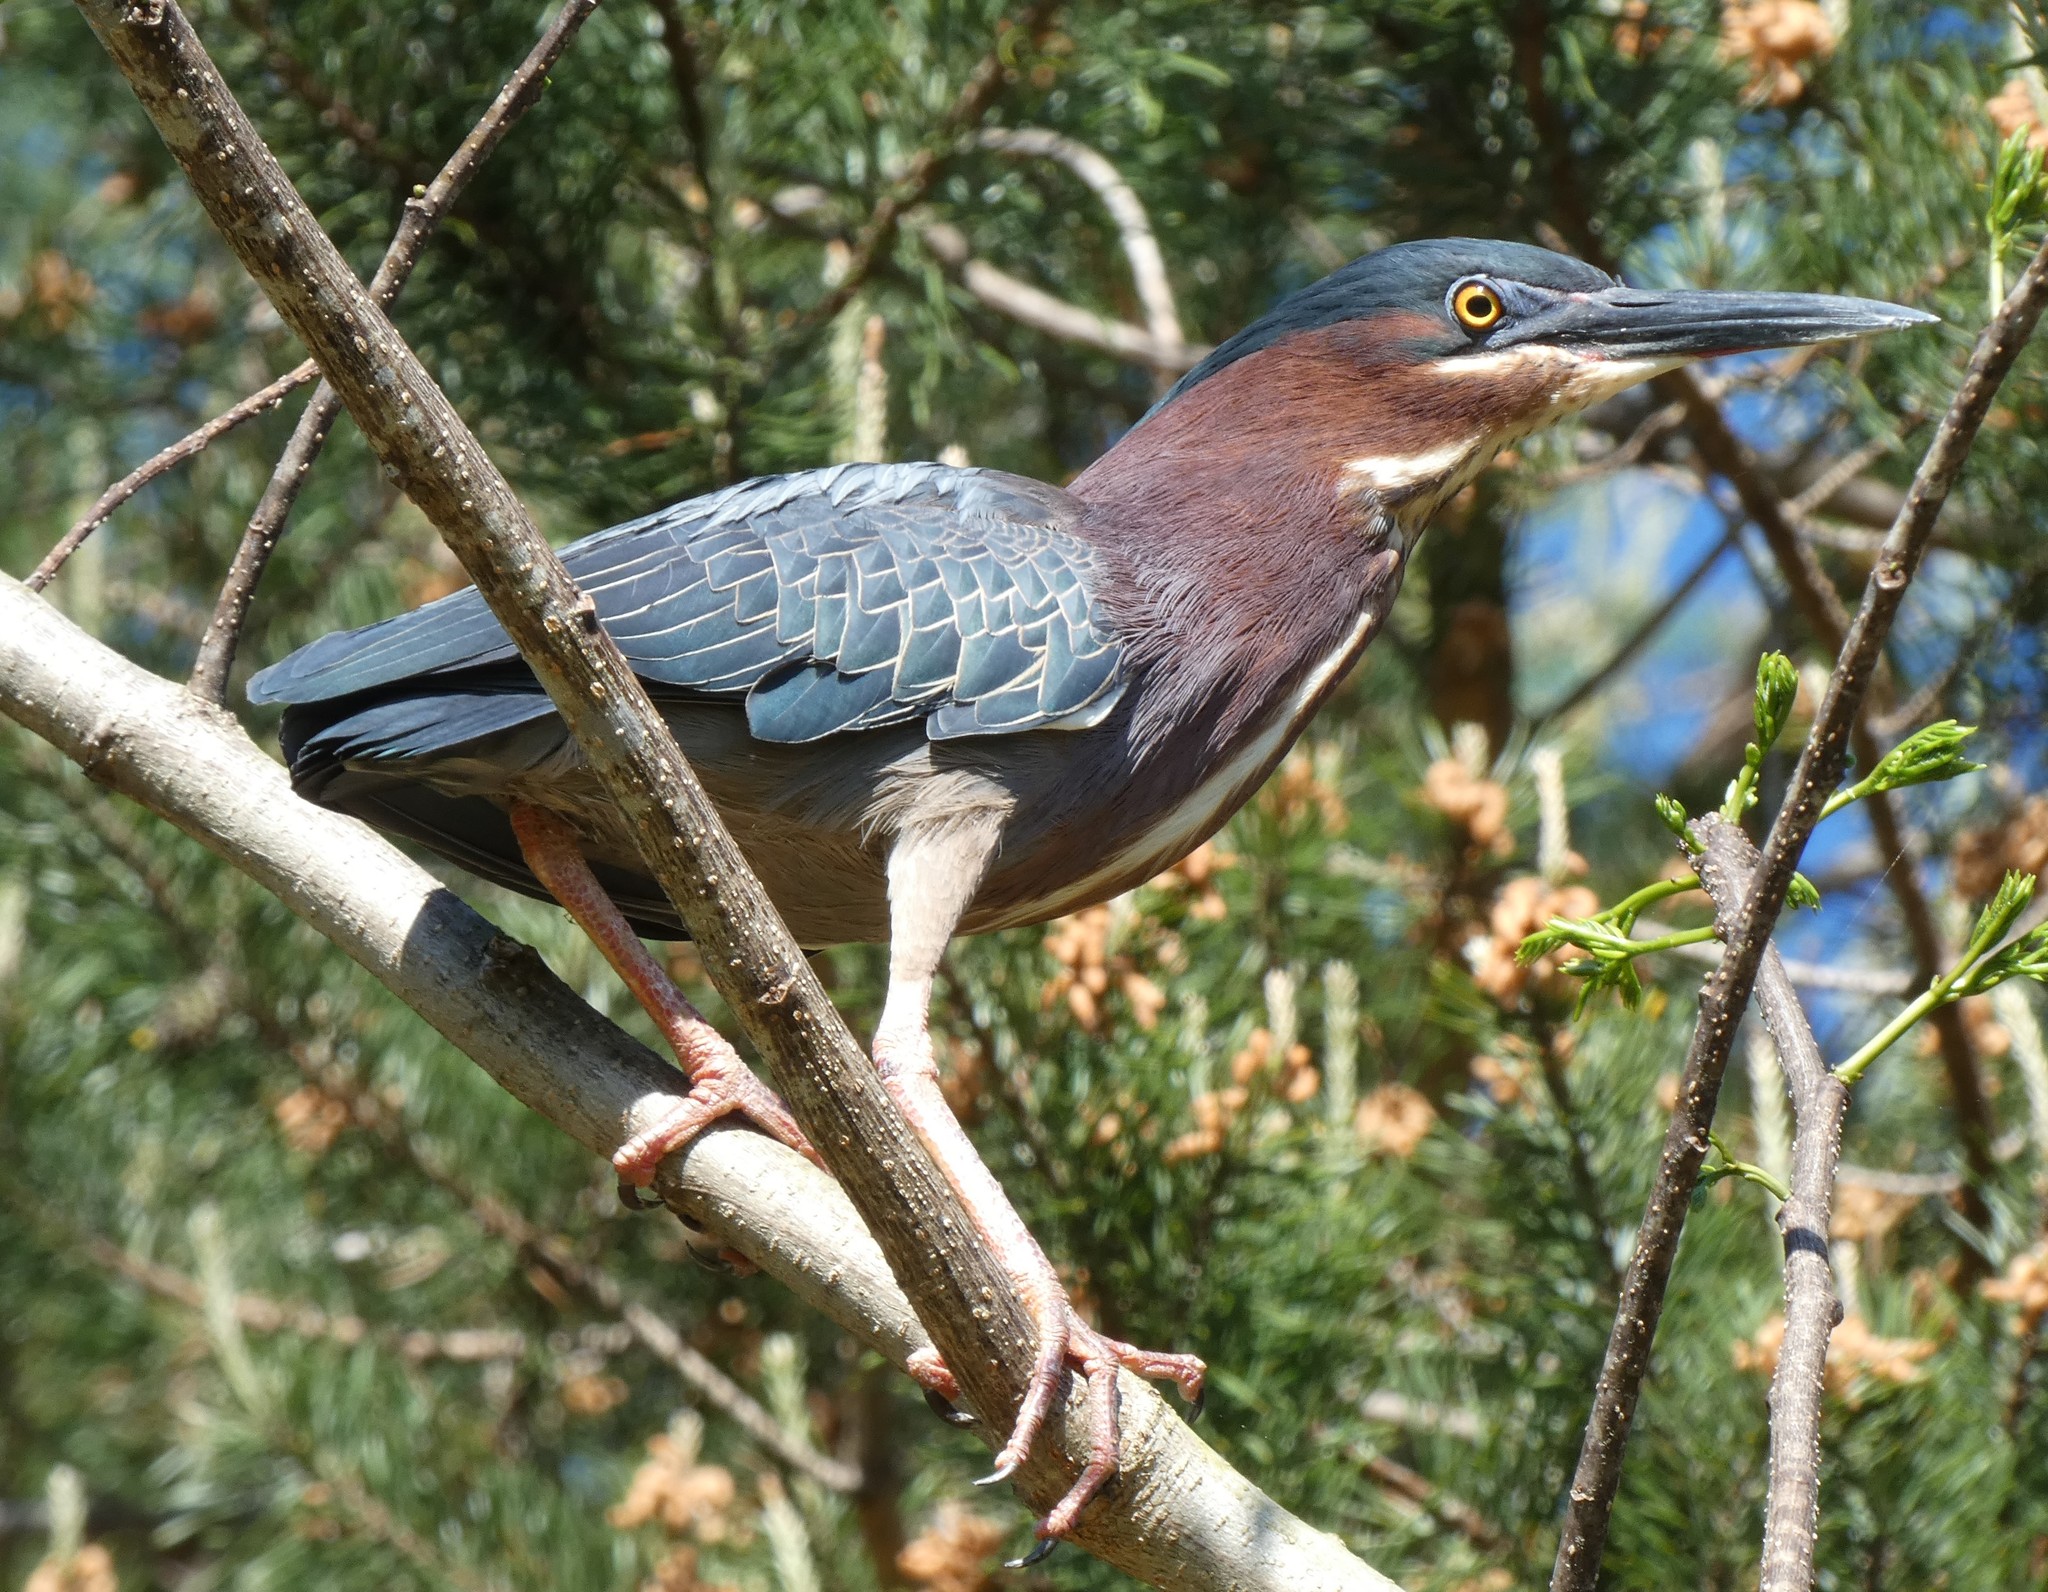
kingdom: Animalia
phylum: Chordata
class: Aves
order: Pelecaniformes
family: Ardeidae
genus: Butorides
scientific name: Butorides virescens
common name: Green heron
